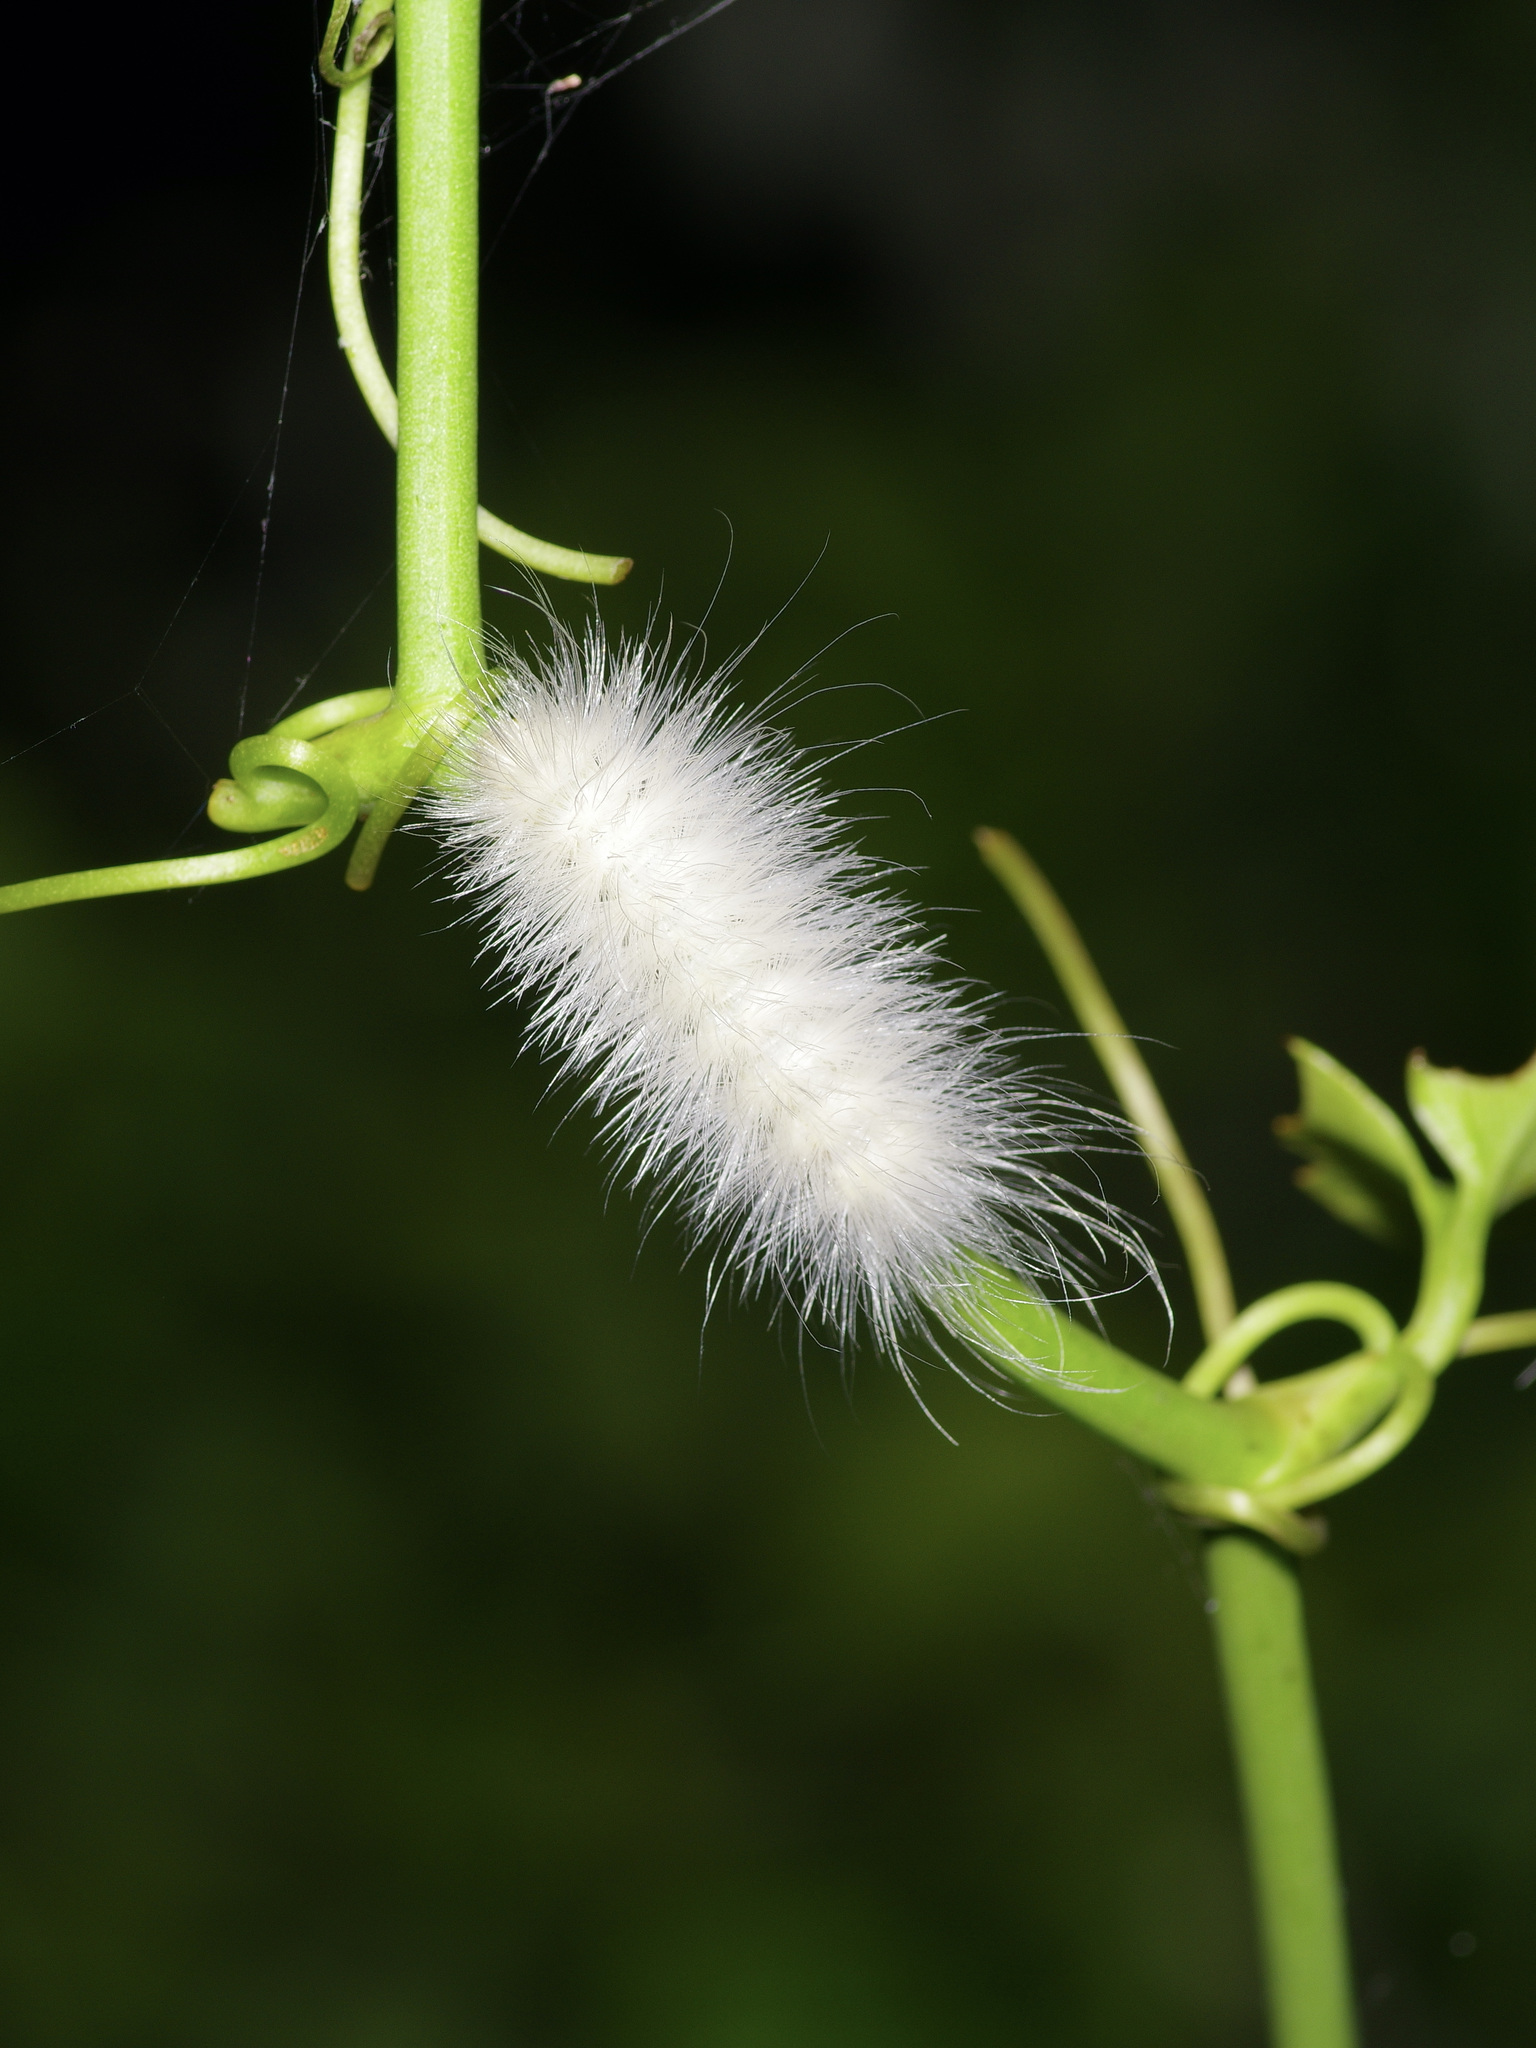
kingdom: Animalia
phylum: Arthropoda
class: Insecta
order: Lepidoptera
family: Erebidae
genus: Spilosoma
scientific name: Spilosoma virginica
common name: Virginia tiger moth
